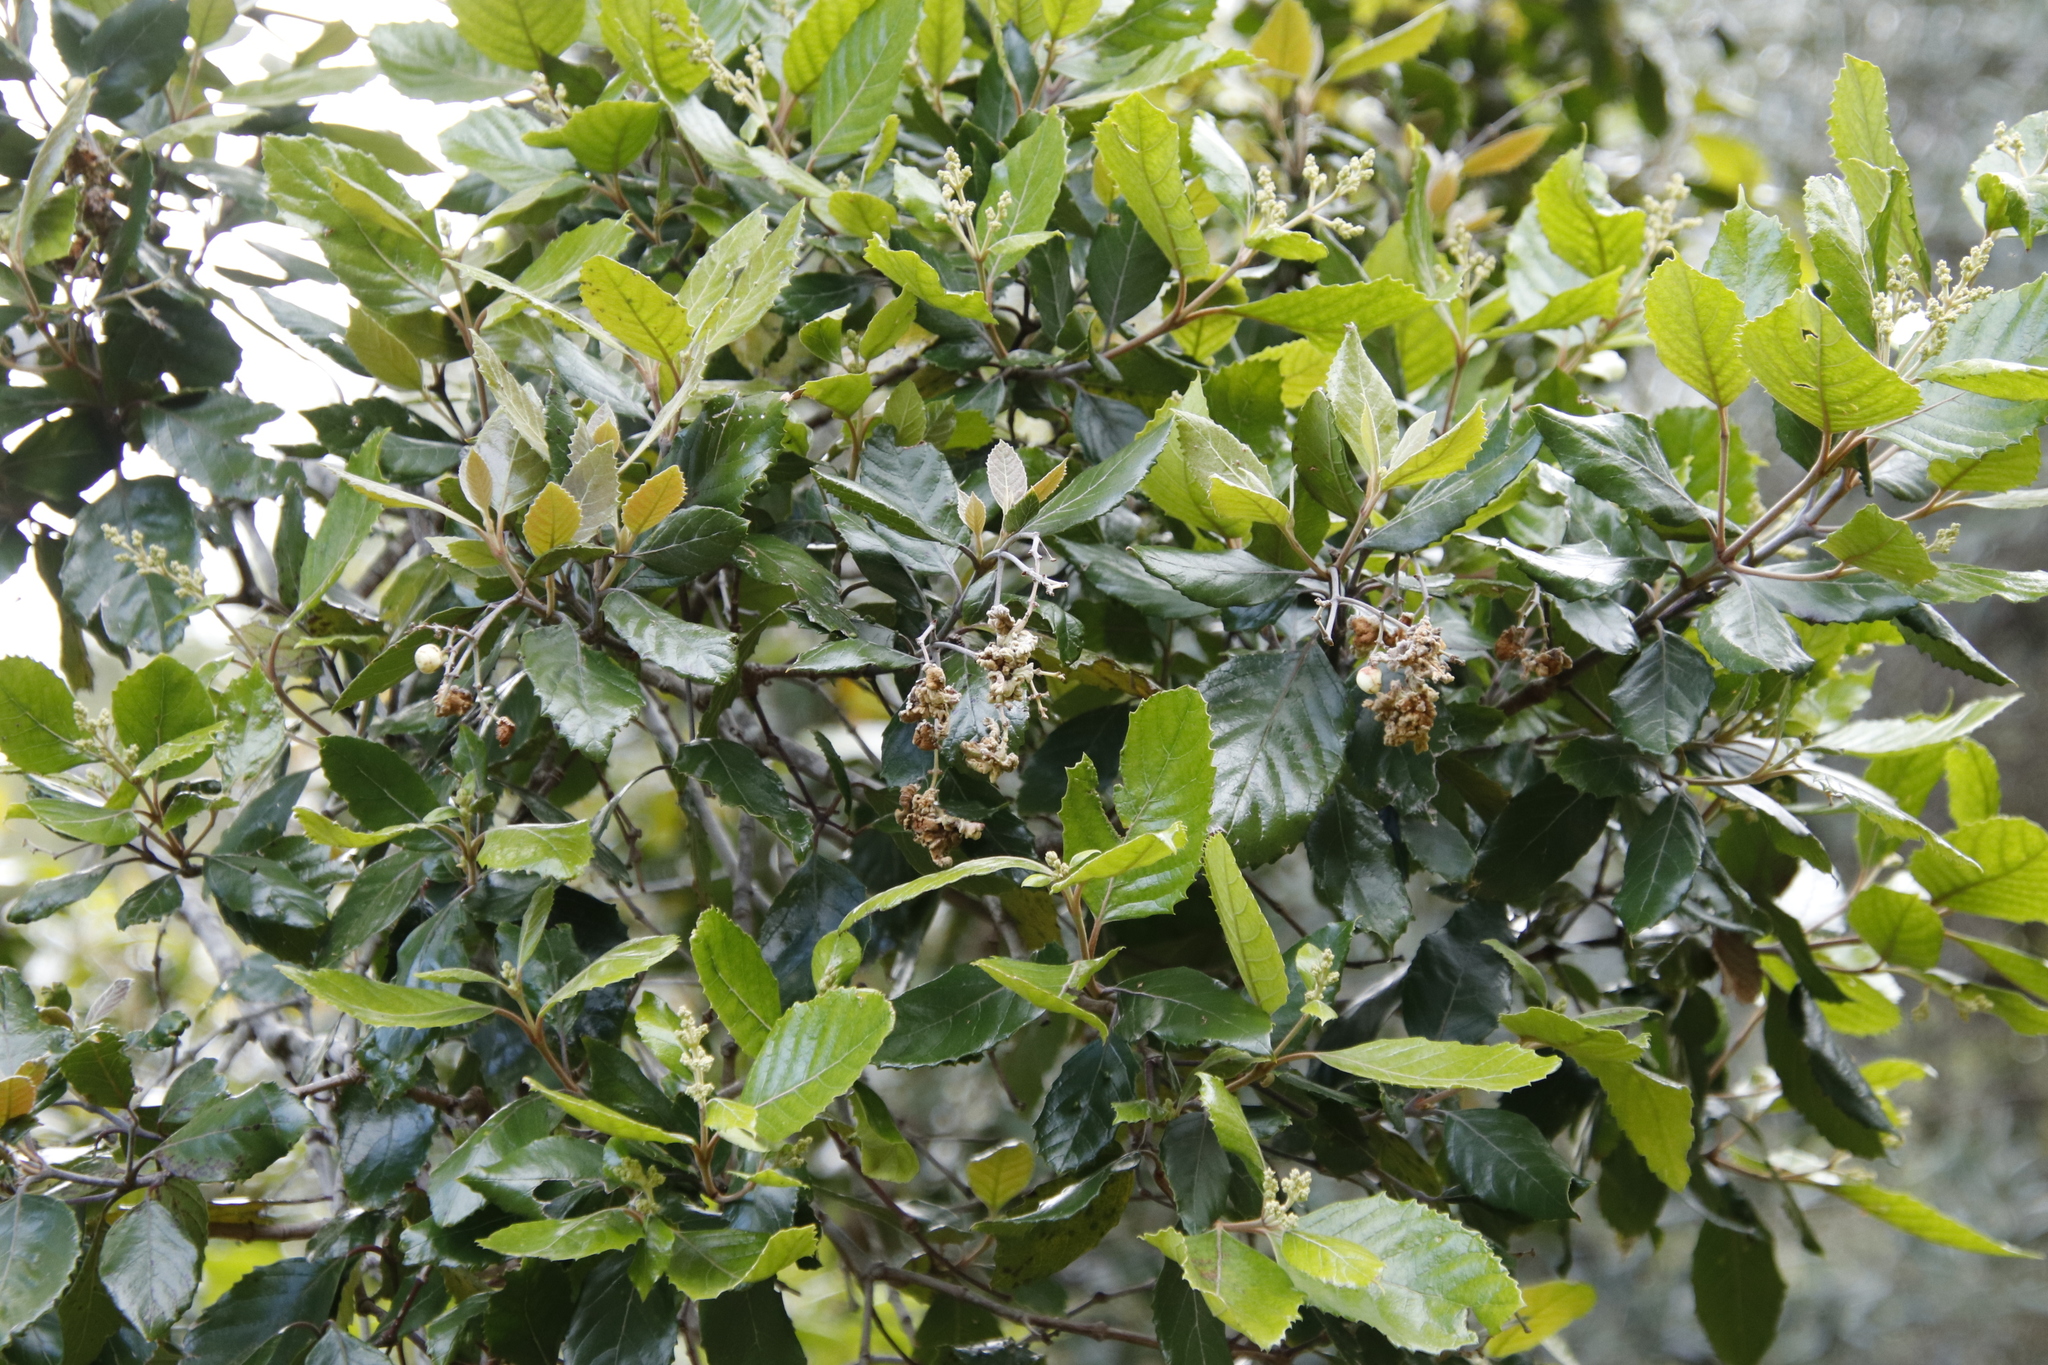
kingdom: Plantae
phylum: Tracheophyta
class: Magnoliopsida
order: Cornales
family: Curtisiaceae
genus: Curtisia
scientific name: Curtisia dentata
